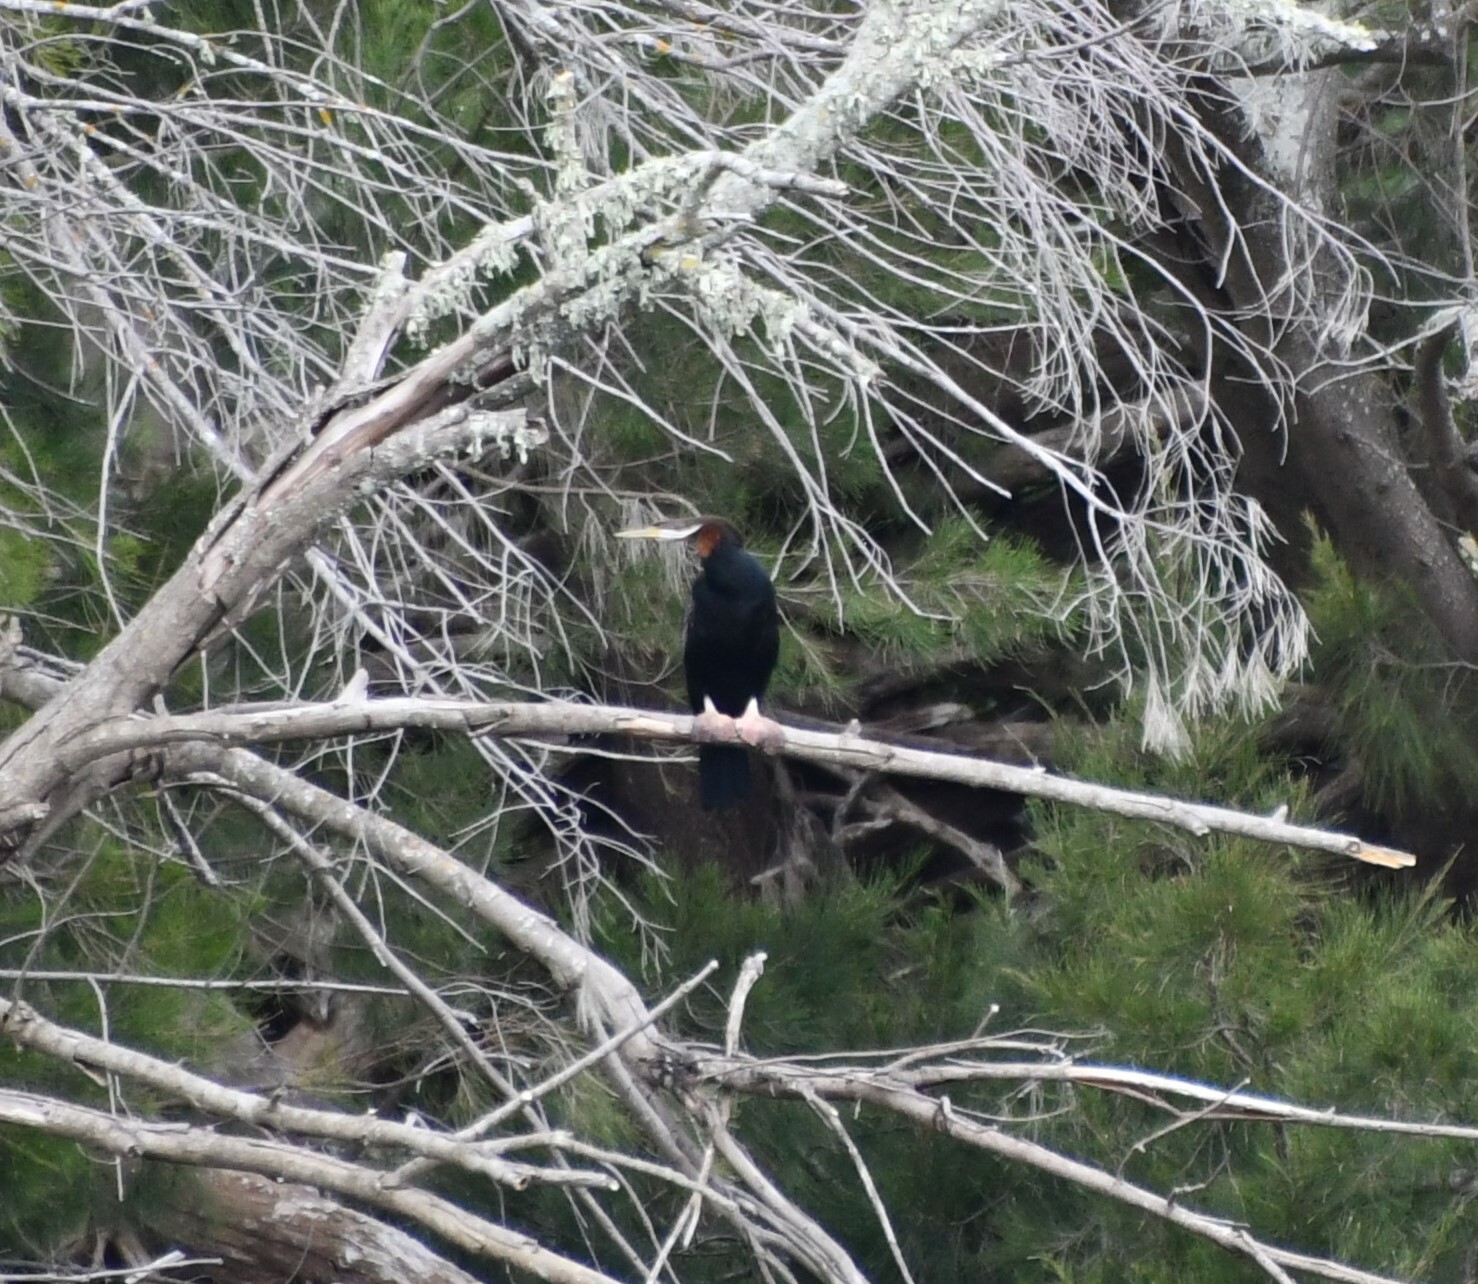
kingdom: Animalia
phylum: Chordata
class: Aves
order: Suliformes
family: Anhingidae
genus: Anhinga
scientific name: Anhinga novaehollandiae
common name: Australasian darter
